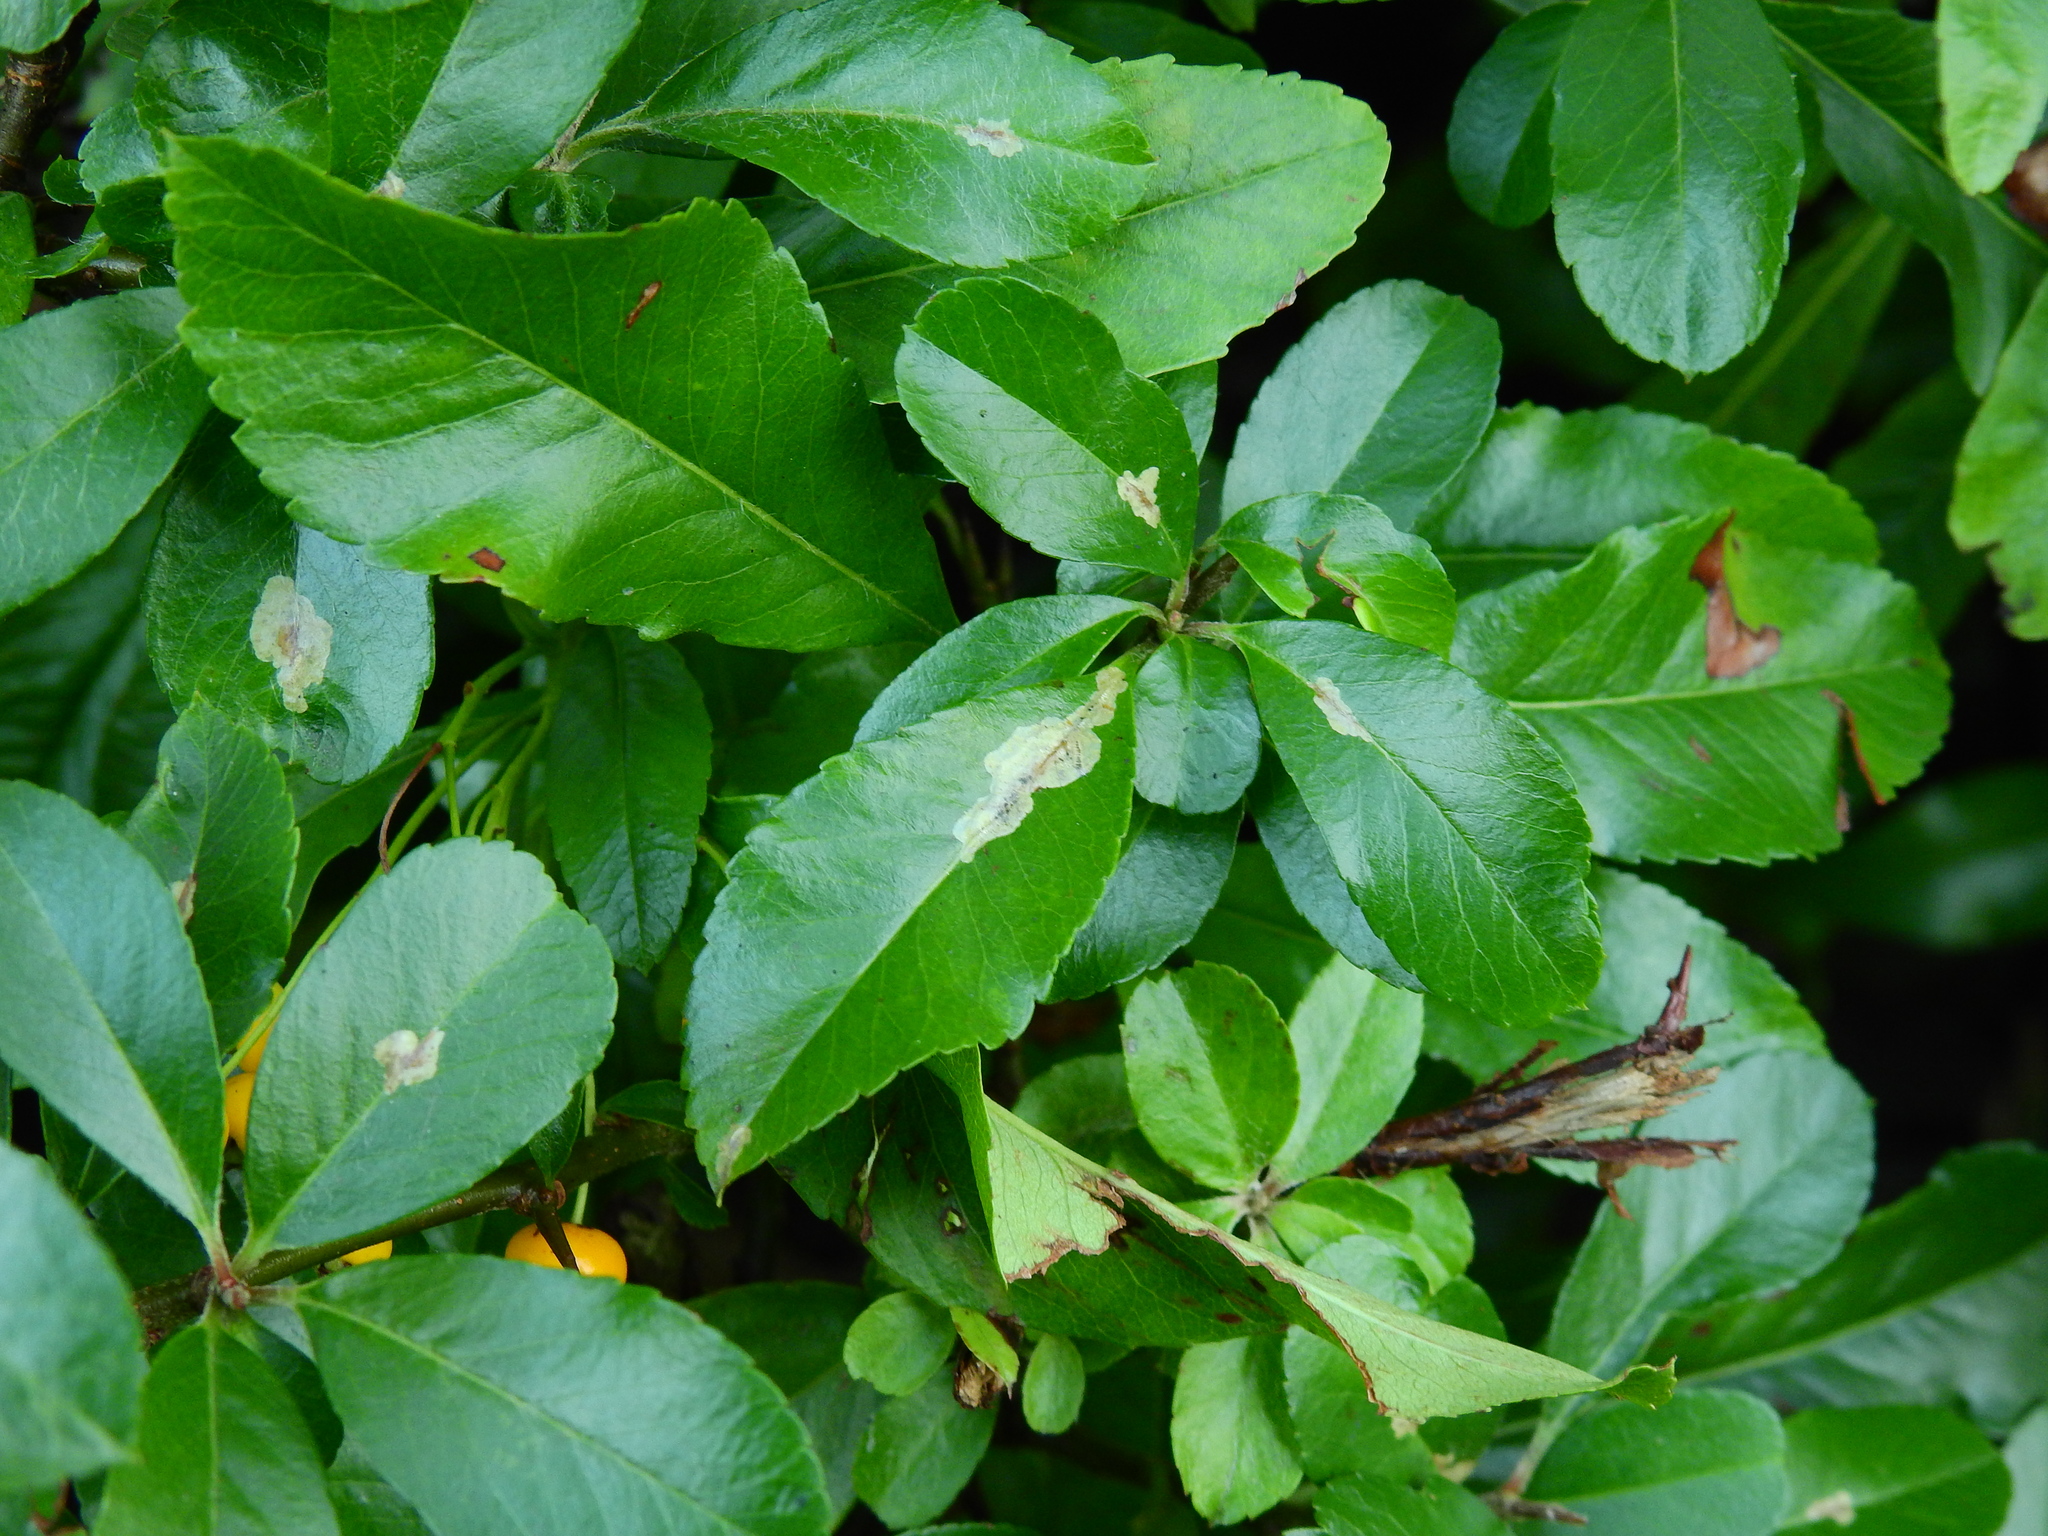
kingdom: Animalia
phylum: Arthropoda
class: Insecta
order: Lepidoptera
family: Gracillariidae
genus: Phyllonorycter
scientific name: Phyllonorycter leucographella
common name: Firethorn leaf-miner
